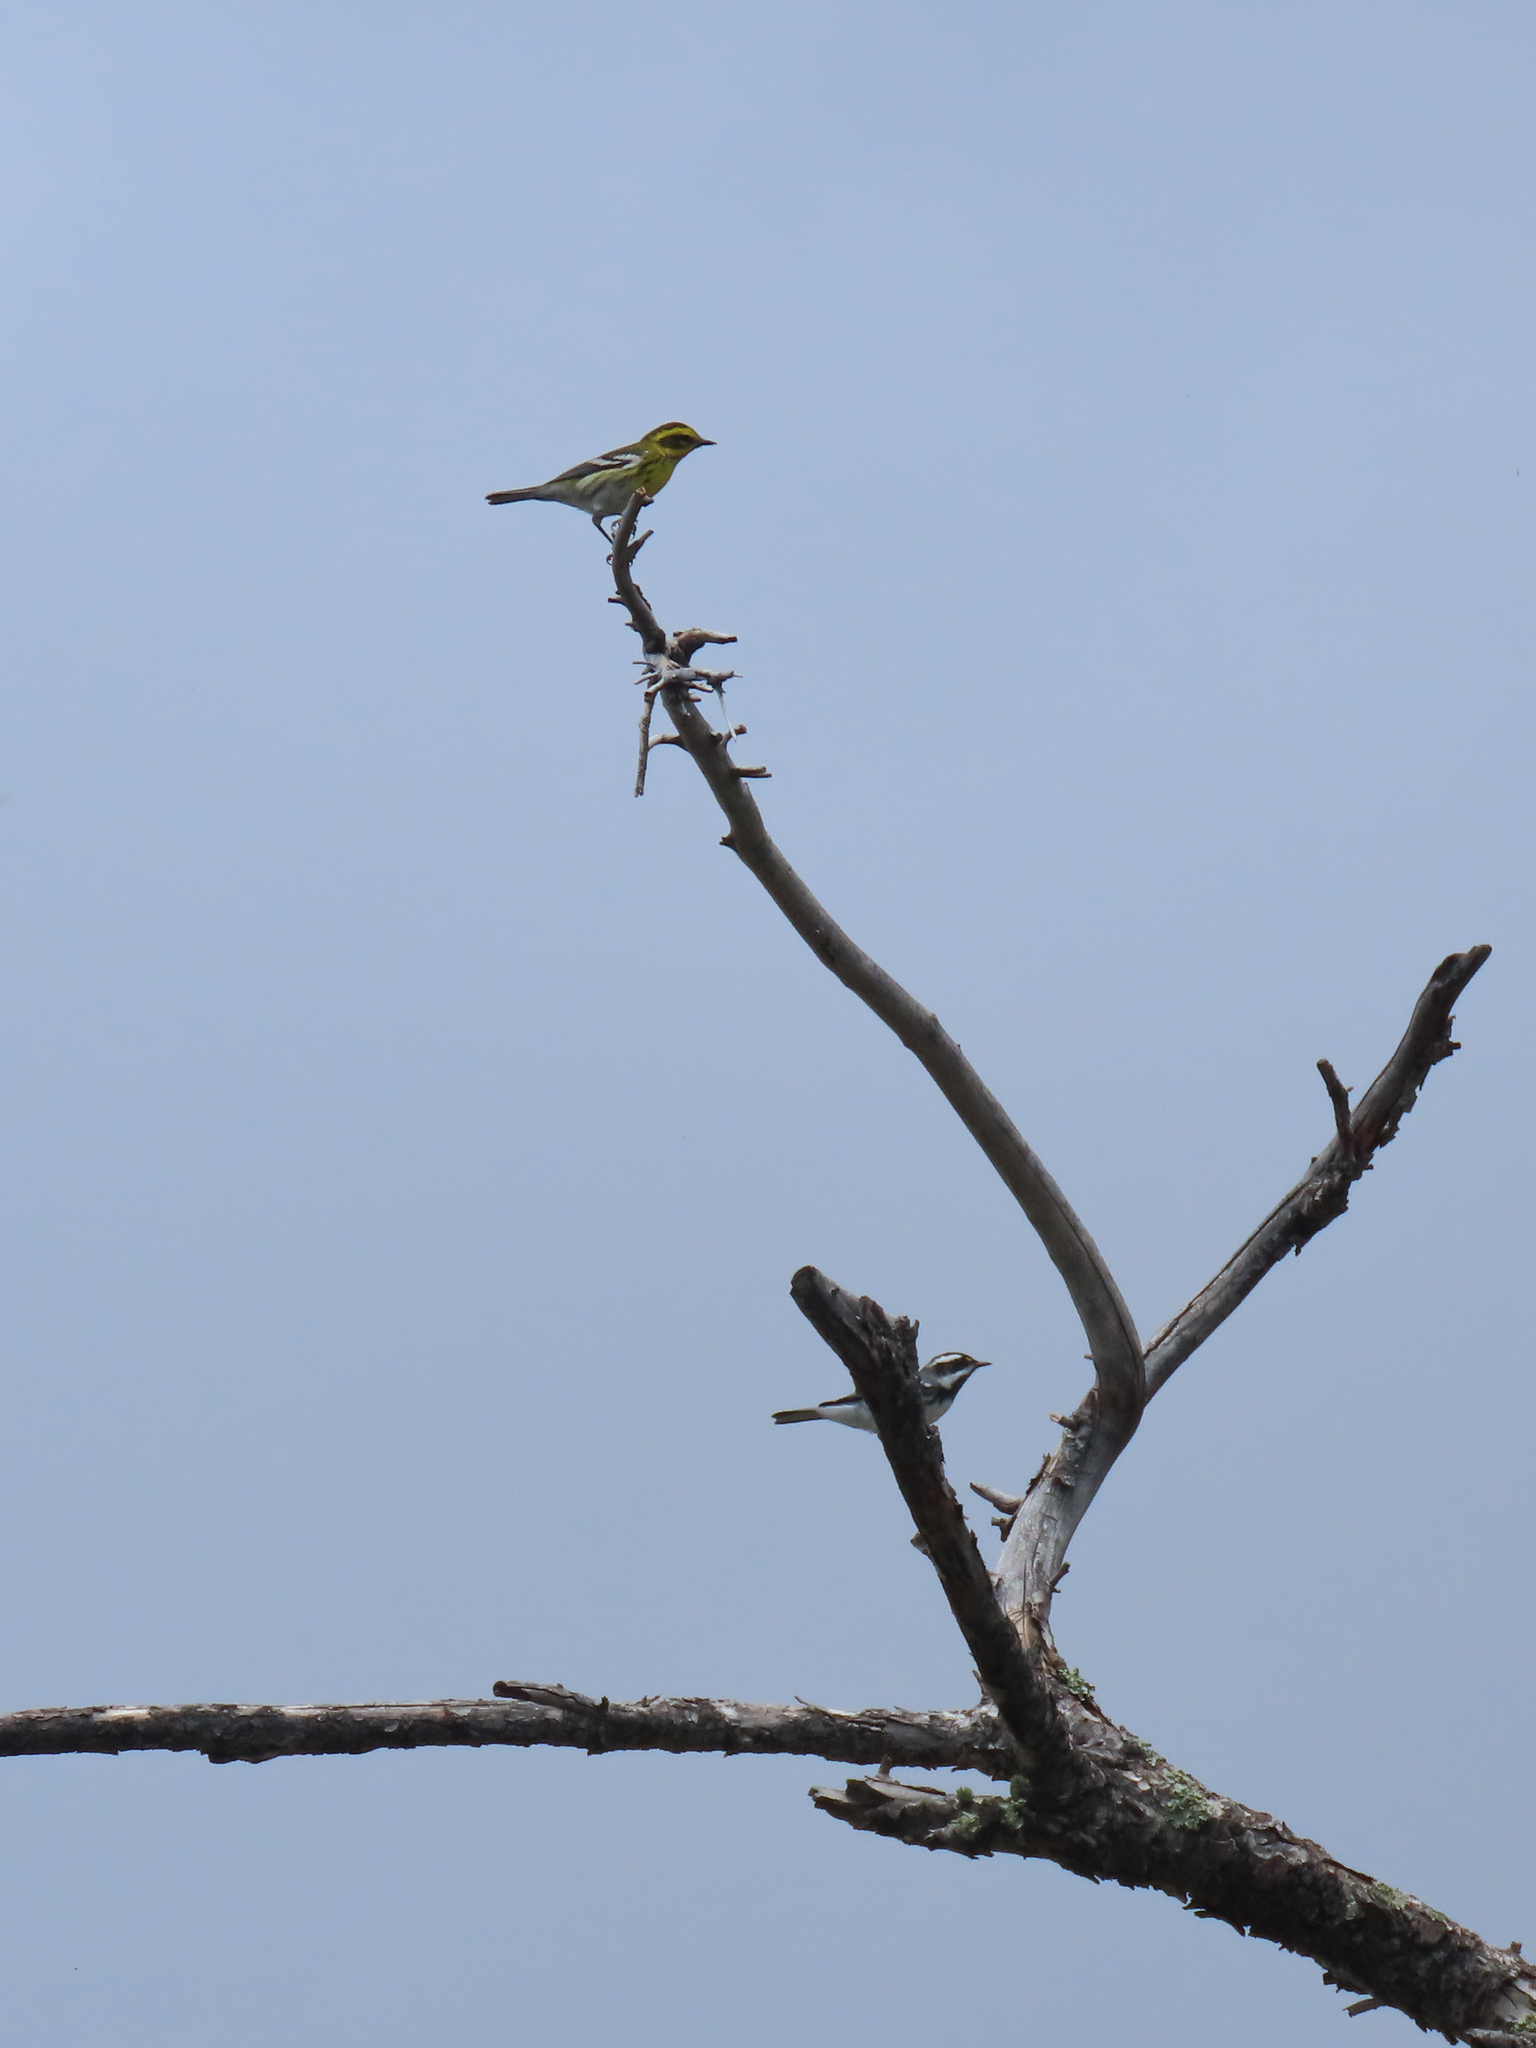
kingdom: Animalia
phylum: Chordata
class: Aves
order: Passeriformes
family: Parulidae
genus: Setophaga
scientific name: Setophaga nigrescens
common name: Black-throated gray warbler
